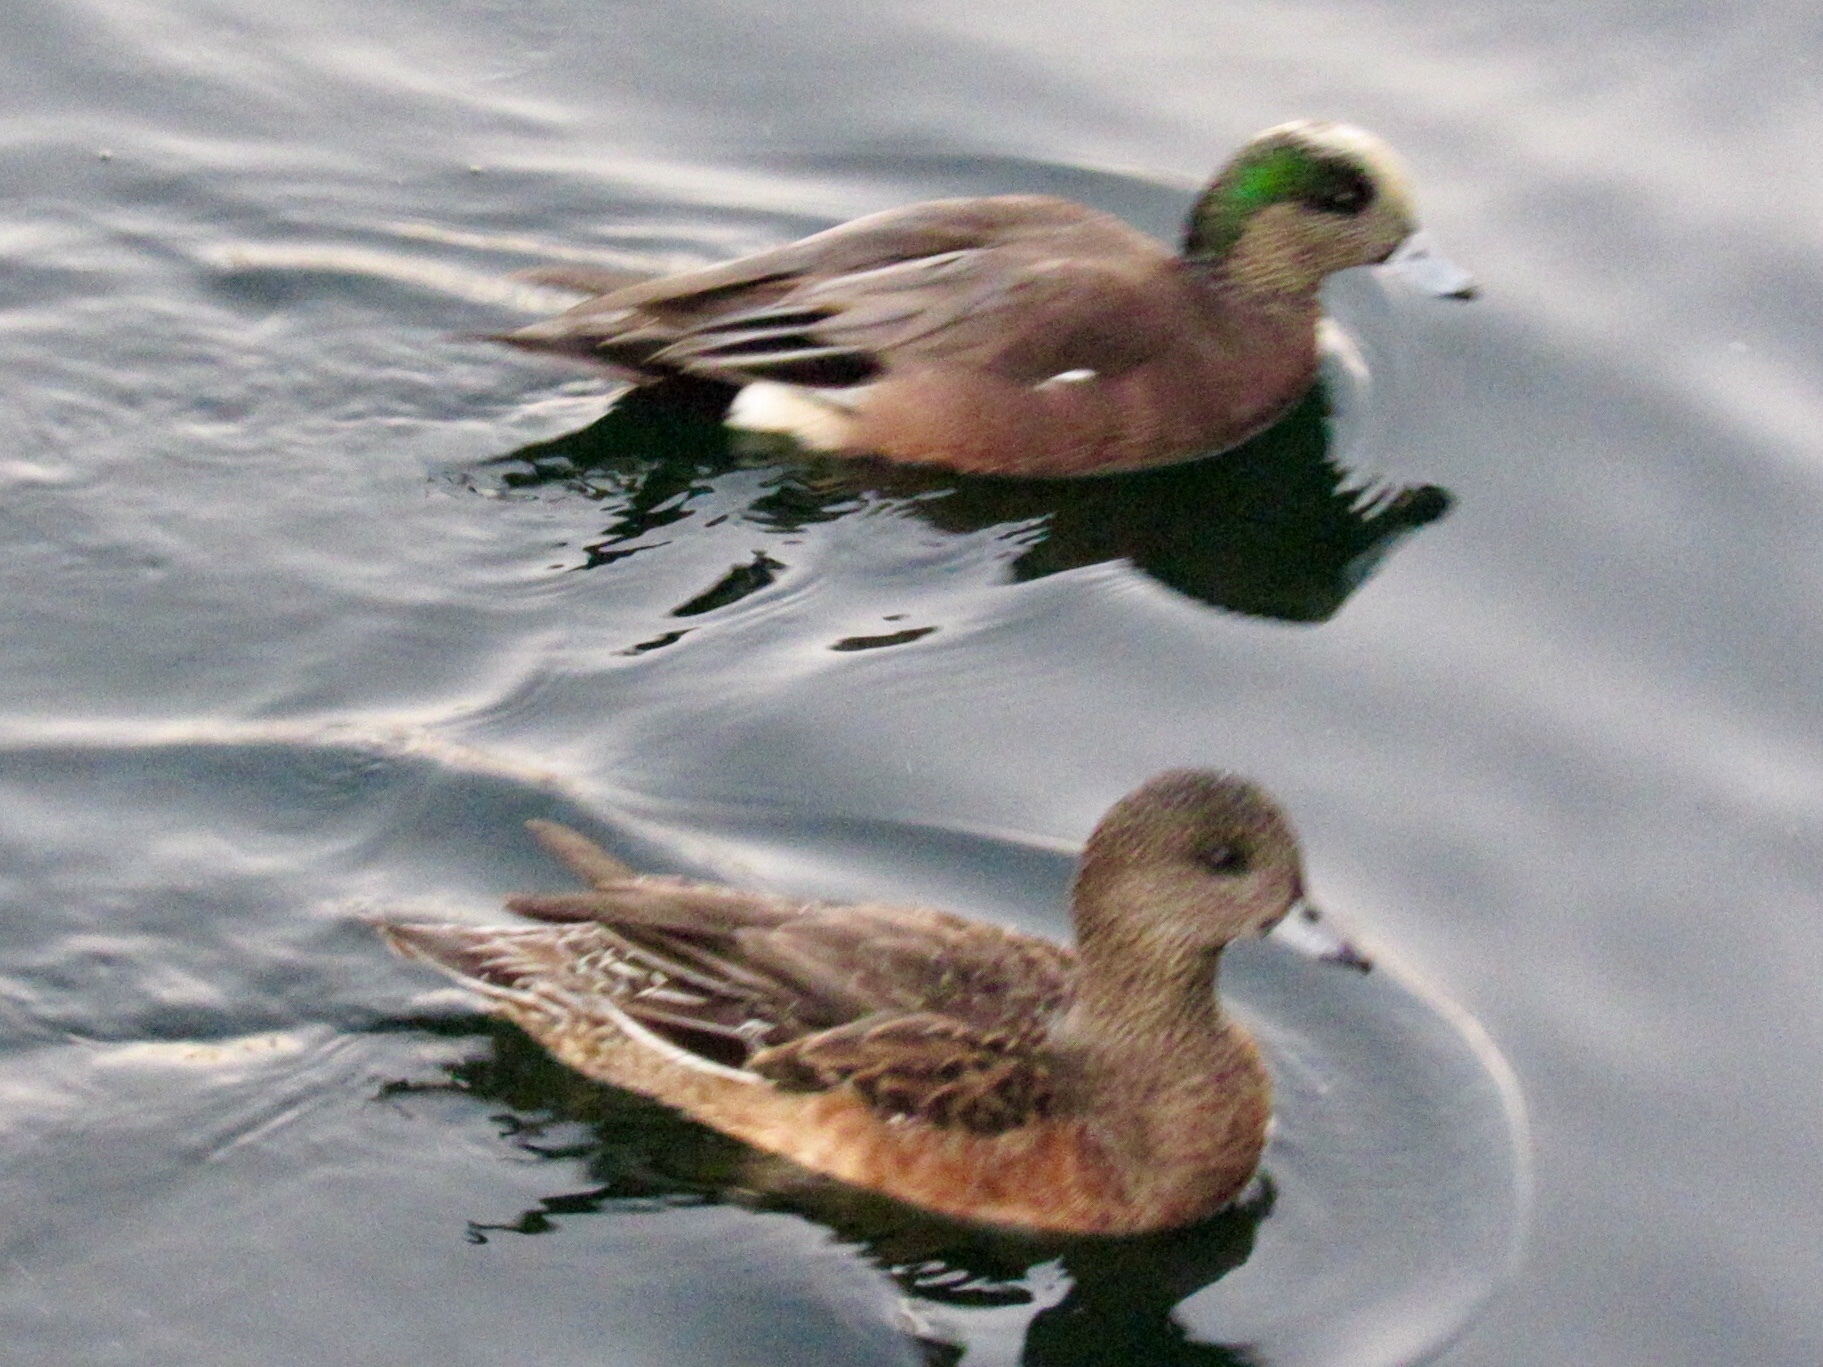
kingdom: Animalia
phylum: Chordata
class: Aves
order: Anseriformes
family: Anatidae
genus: Mareca
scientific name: Mareca americana
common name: American wigeon
